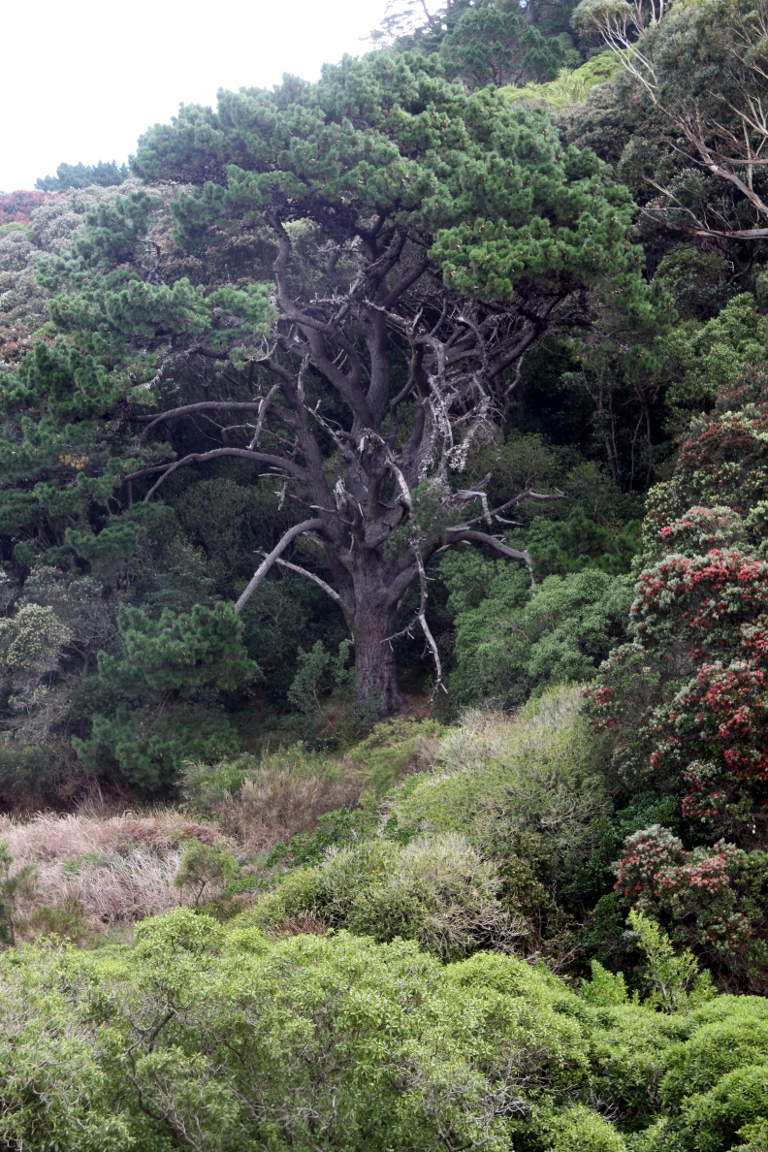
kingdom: Plantae
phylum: Tracheophyta
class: Pinopsida
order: Pinales
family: Pinaceae
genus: Pinus
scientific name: Pinus radiata
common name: Monterey pine
